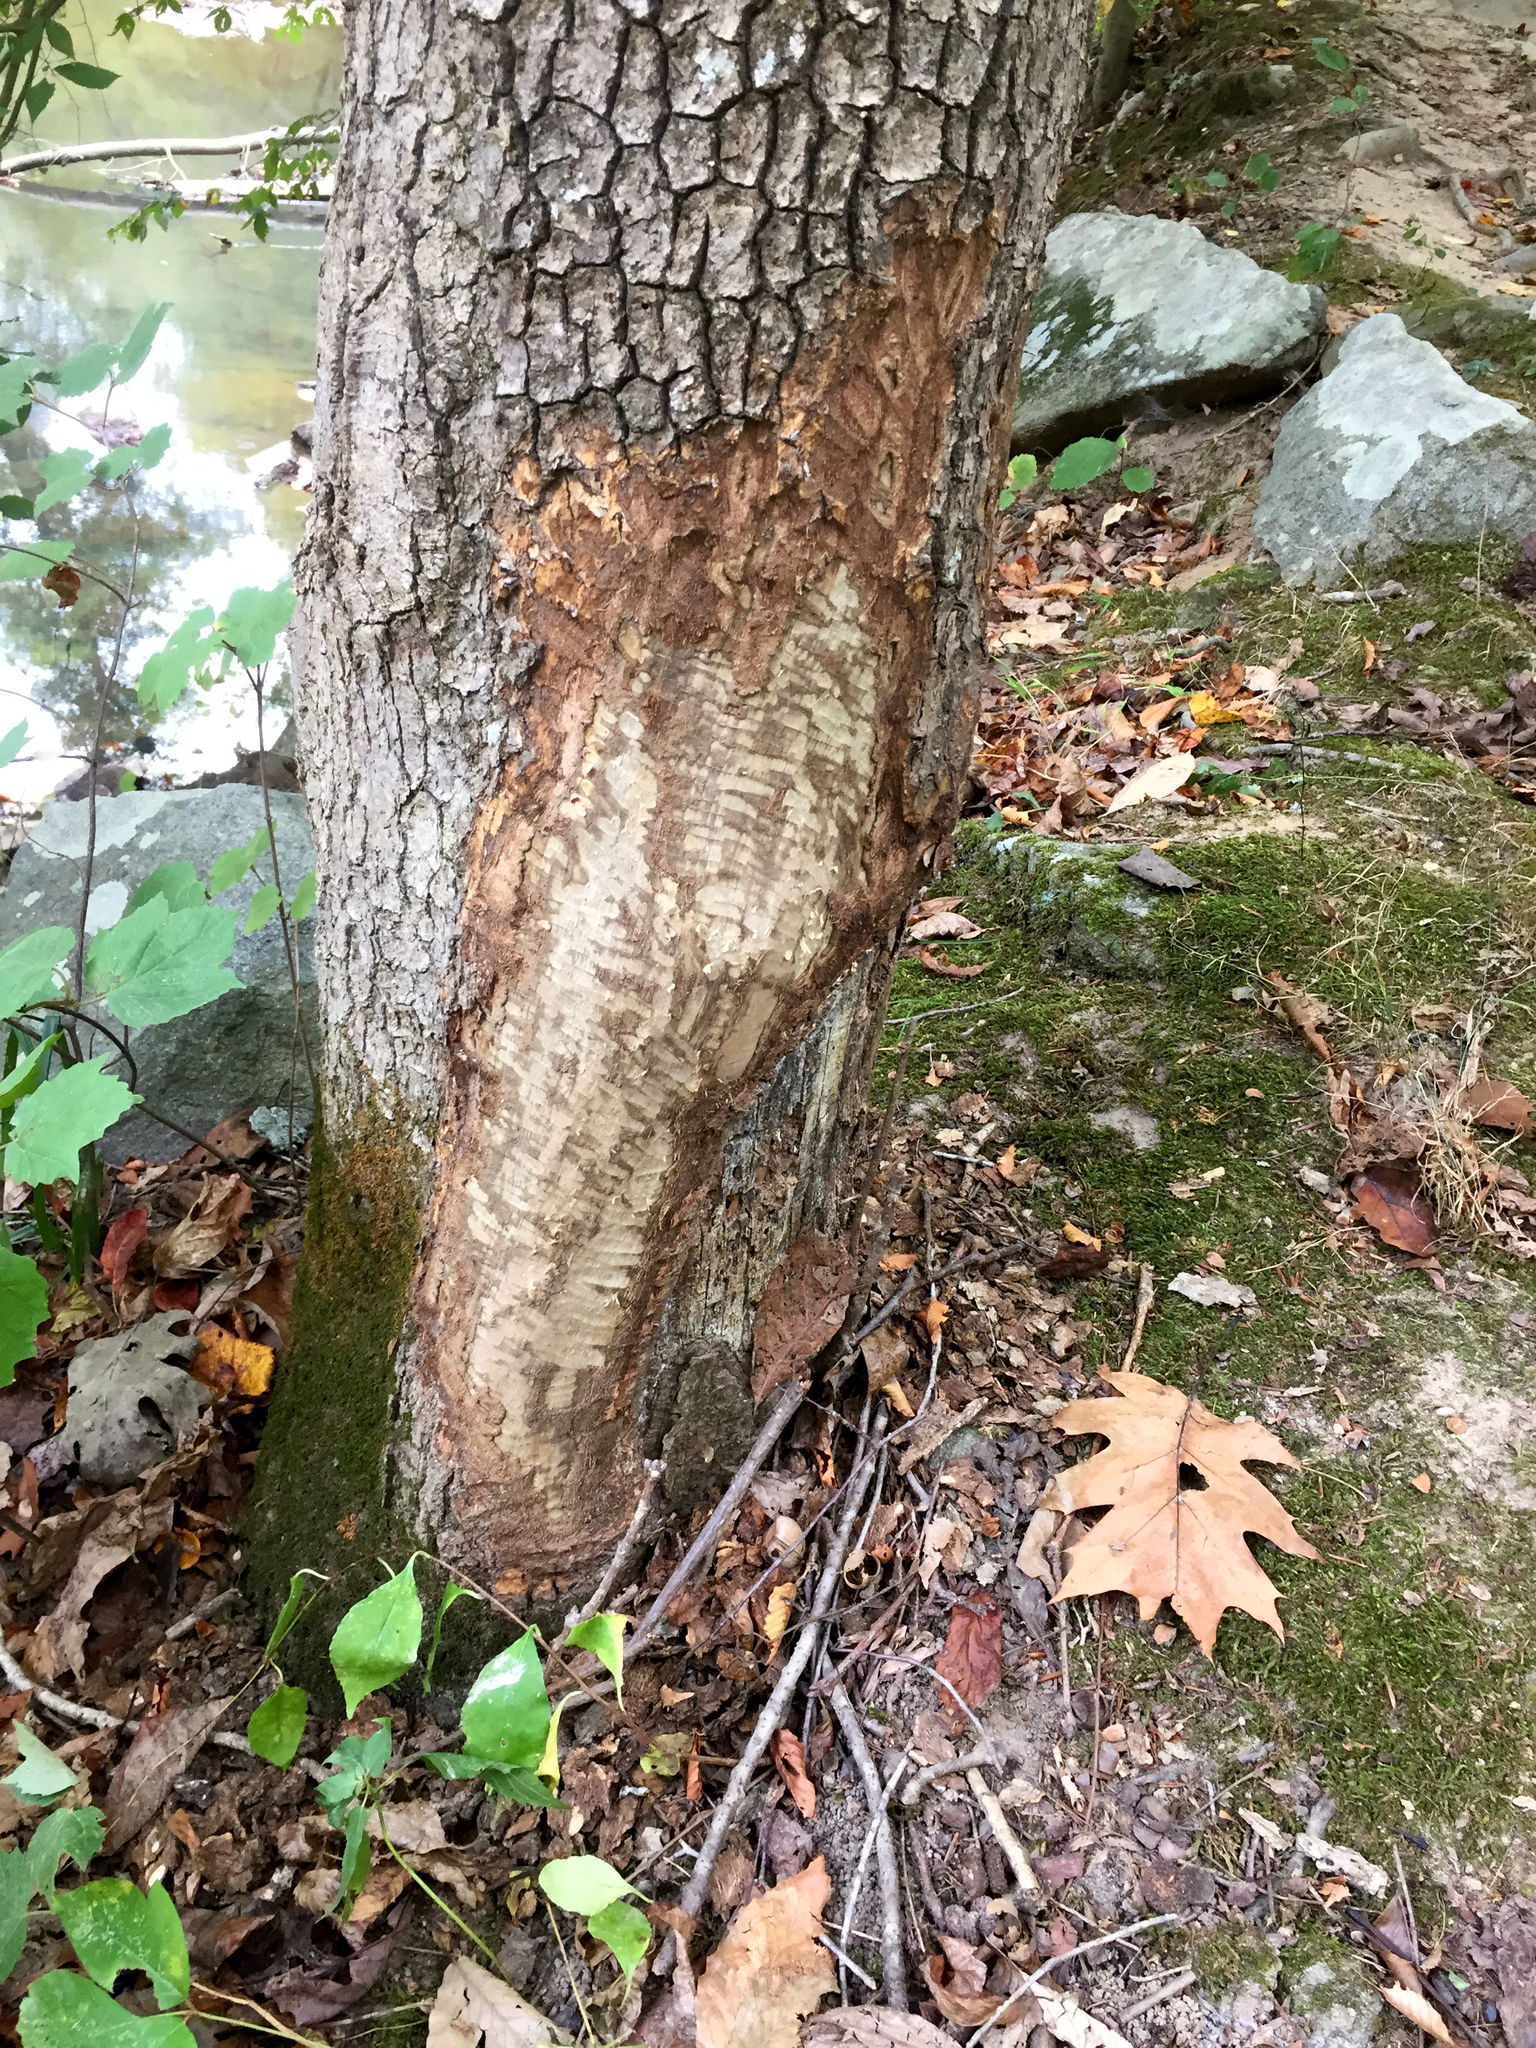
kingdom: Animalia
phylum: Chordata
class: Mammalia
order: Rodentia
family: Castoridae
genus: Castor
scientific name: Castor canadensis
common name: American beaver
